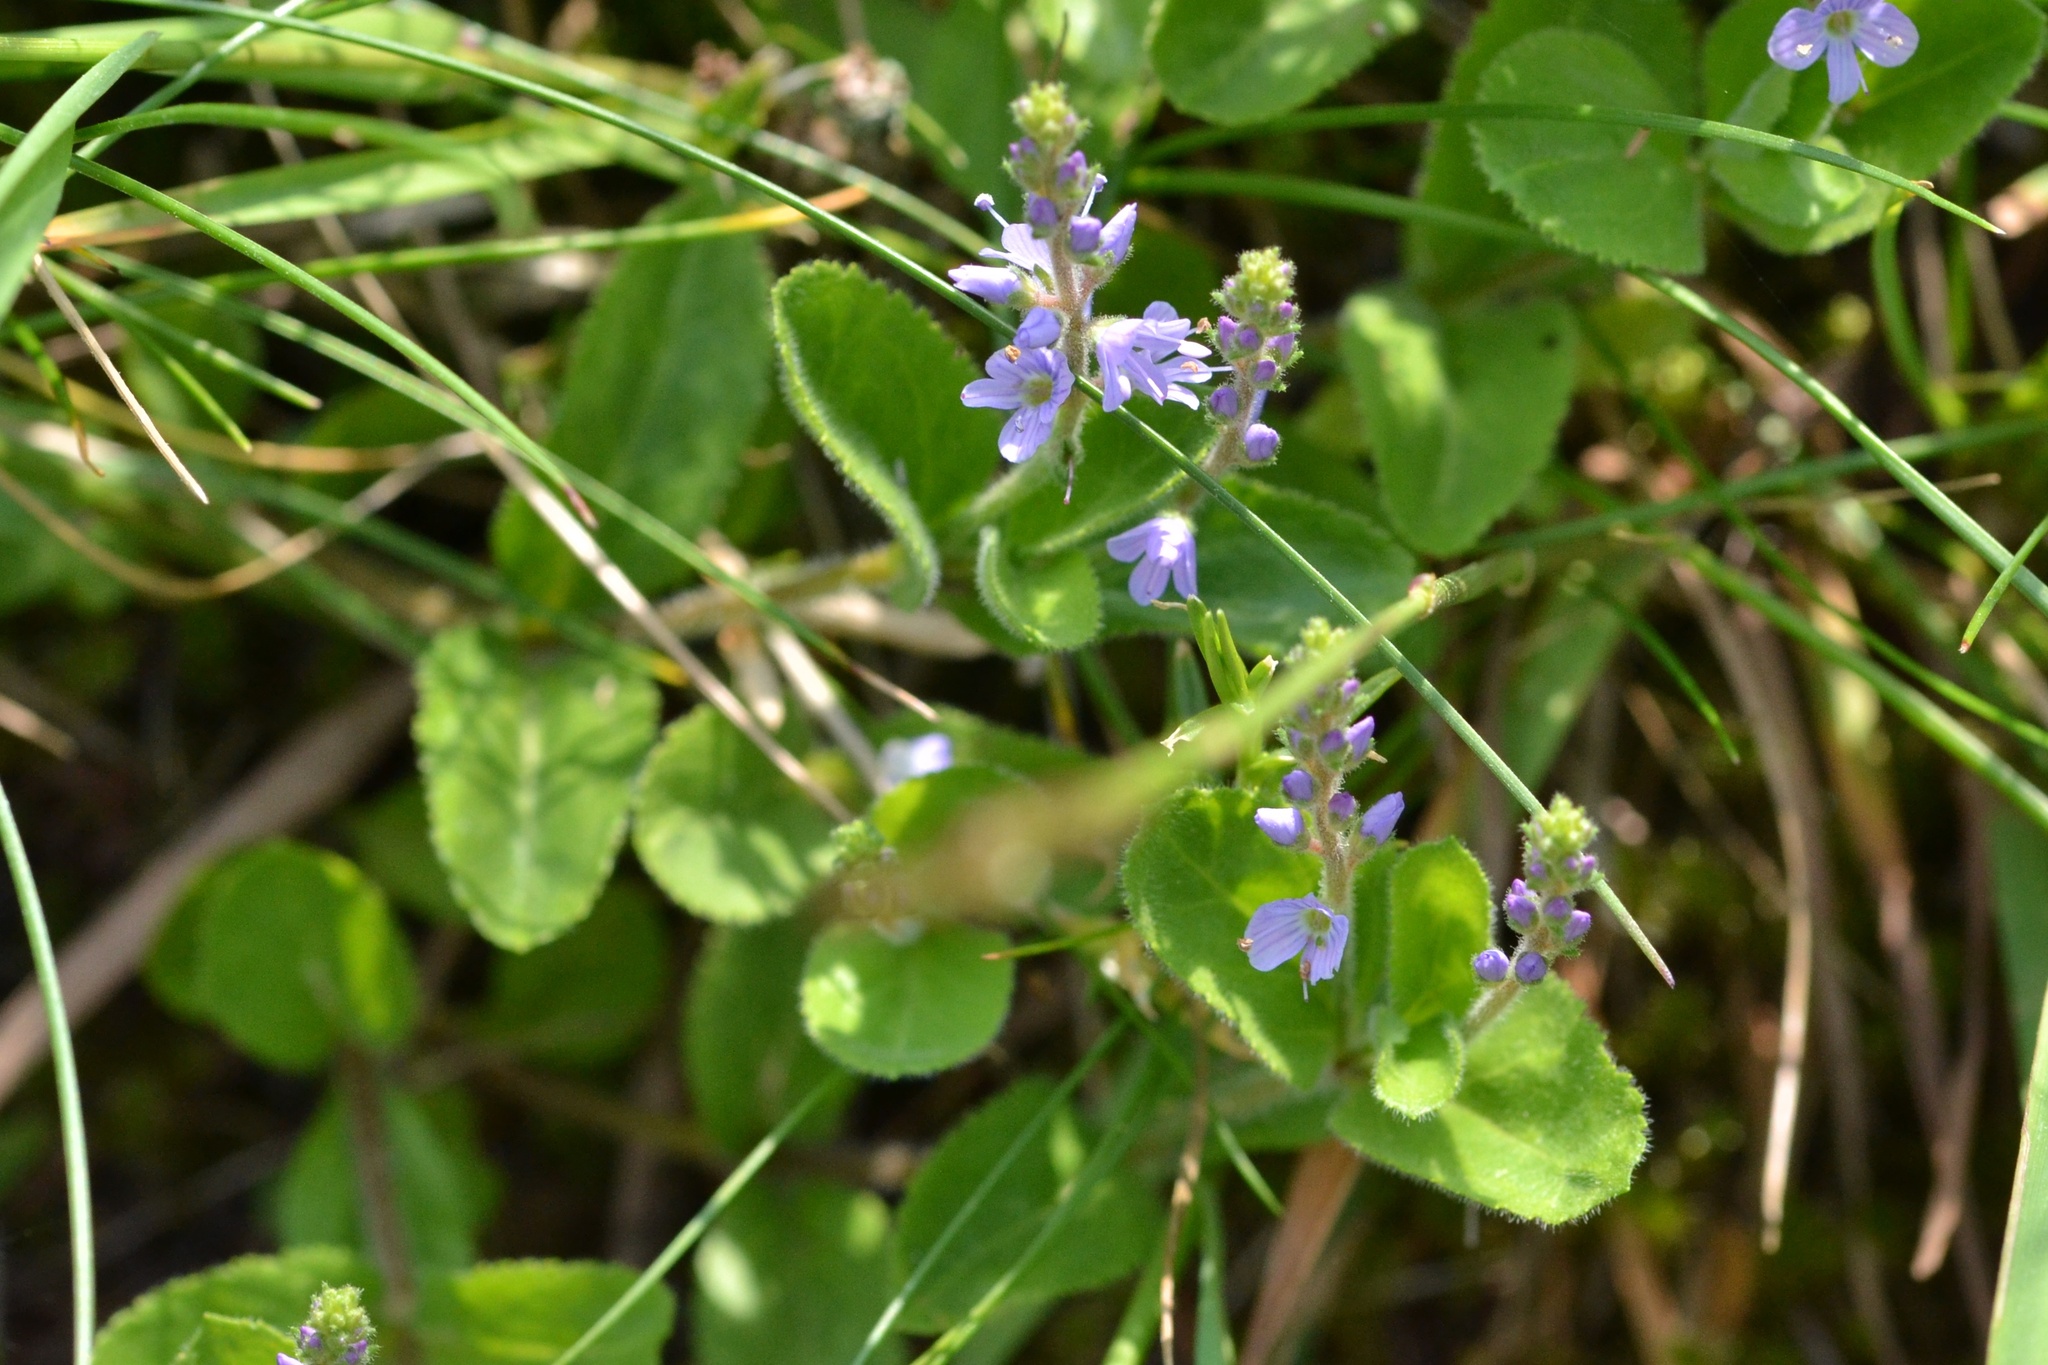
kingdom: Plantae
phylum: Tracheophyta
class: Magnoliopsida
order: Lamiales
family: Plantaginaceae
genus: Veronica
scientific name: Veronica officinalis
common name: Common speedwell
